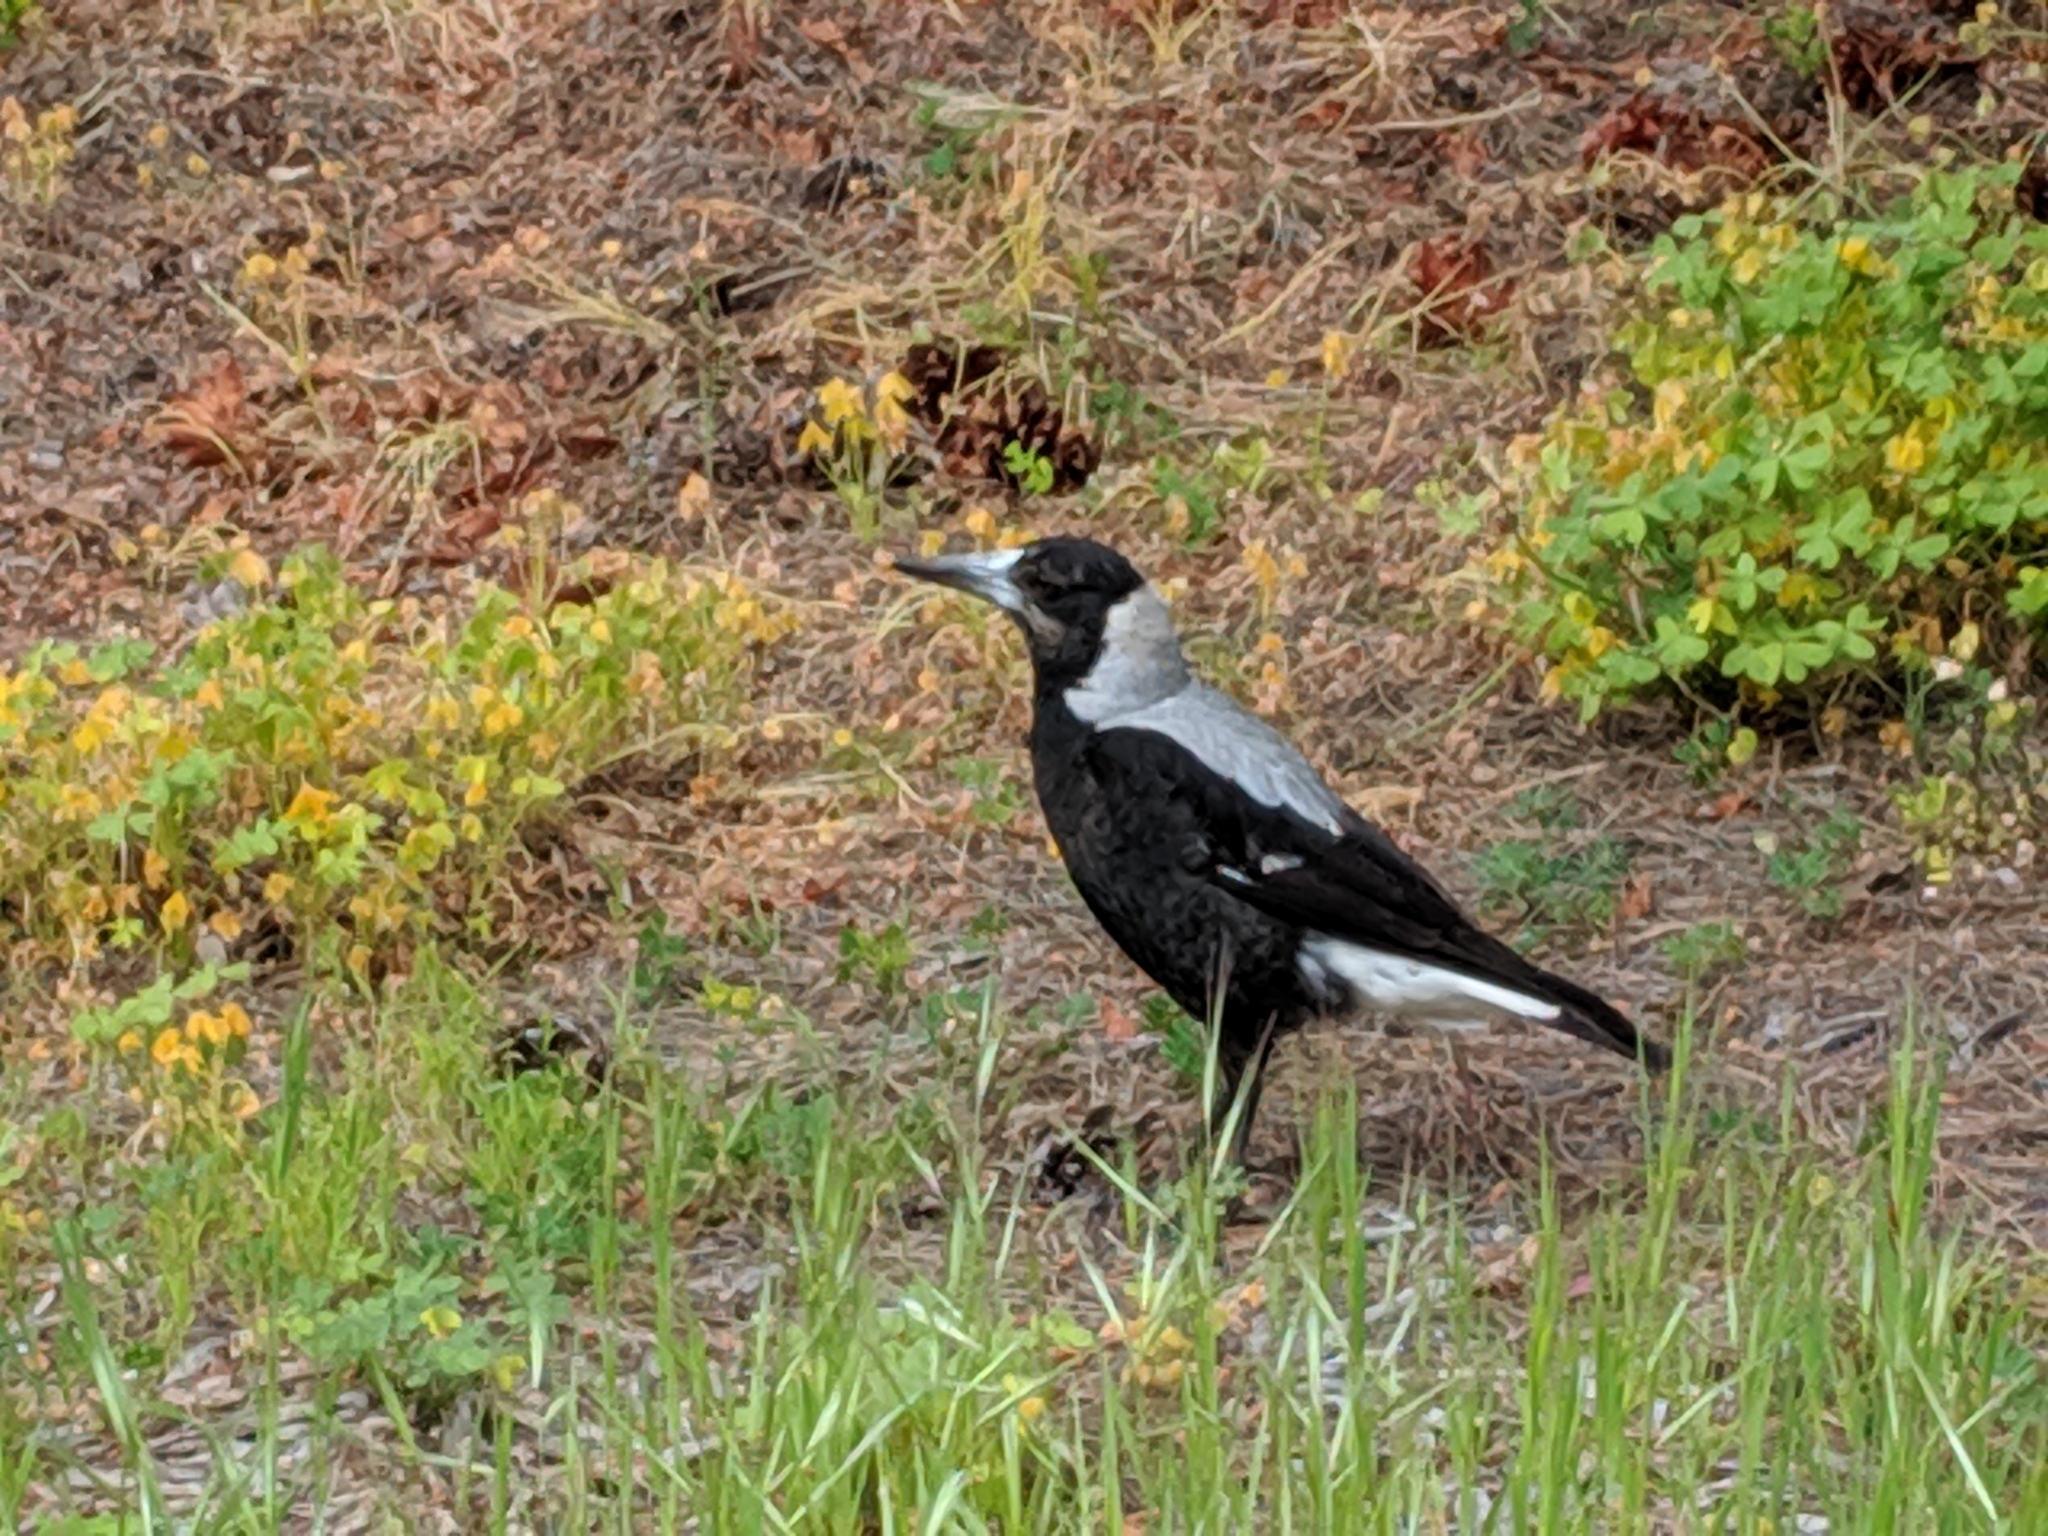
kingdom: Animalia
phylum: Chordata
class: Aves
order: Passeriformes
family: Cracticidae
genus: Gymnorhina
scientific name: Gymnorhina tibicen
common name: Australian magpie
